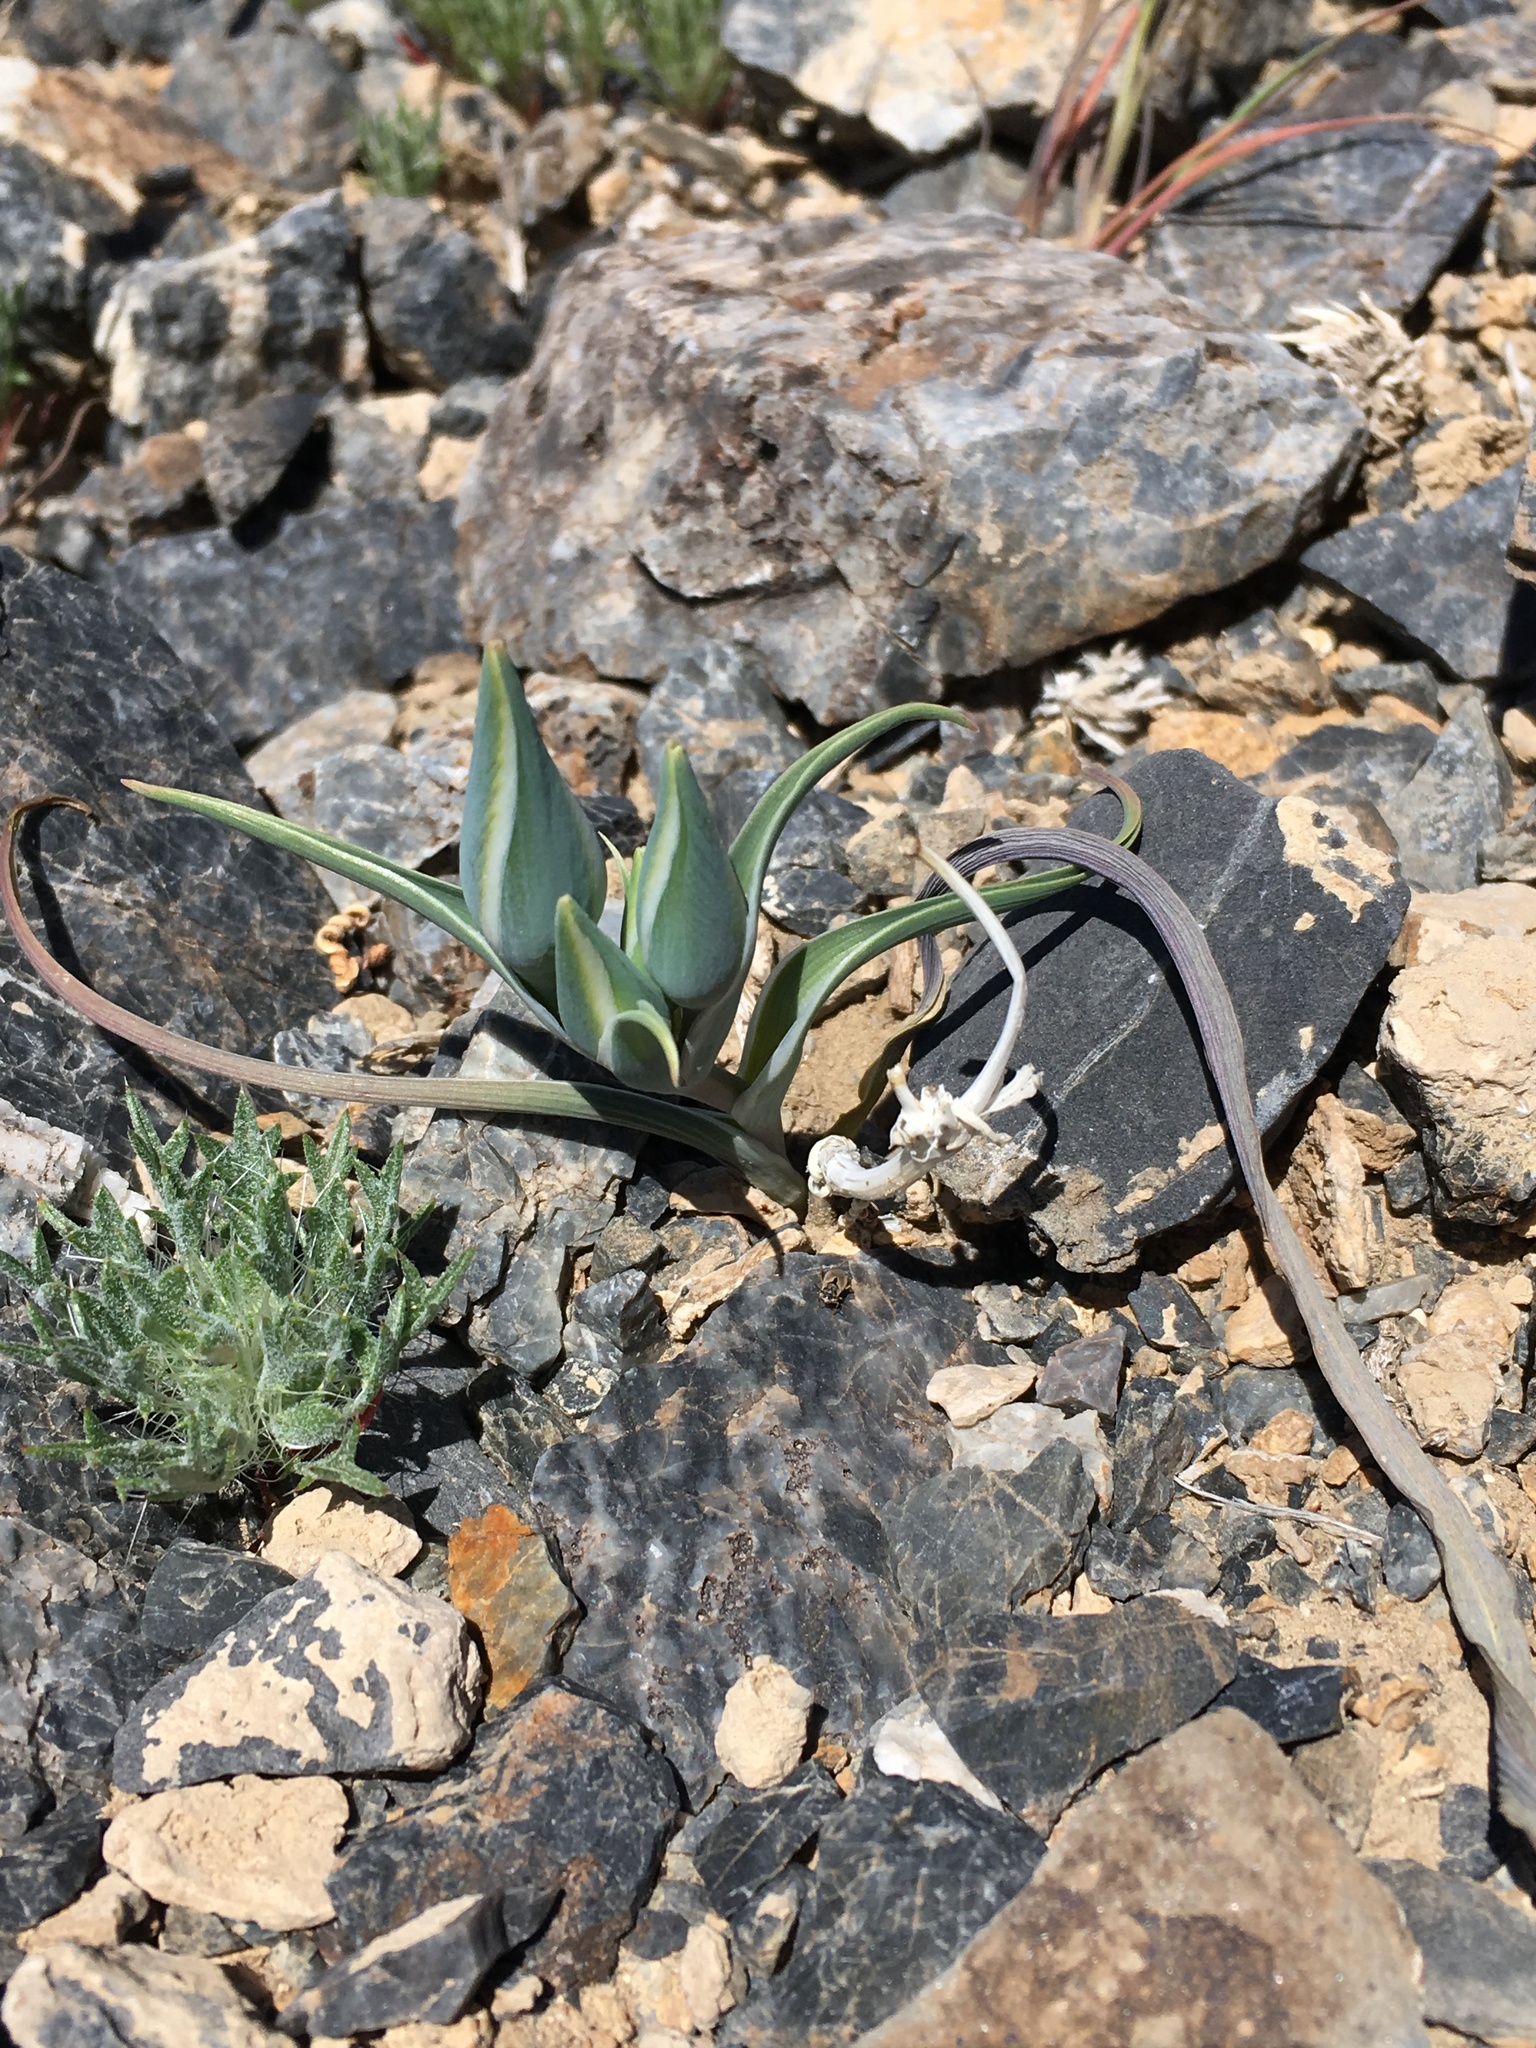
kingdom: Plantae
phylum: Tracheophyta
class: Liliopsida
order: Liliales
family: Liliaceae
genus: Calochortus
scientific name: Calochortus kennedyi
